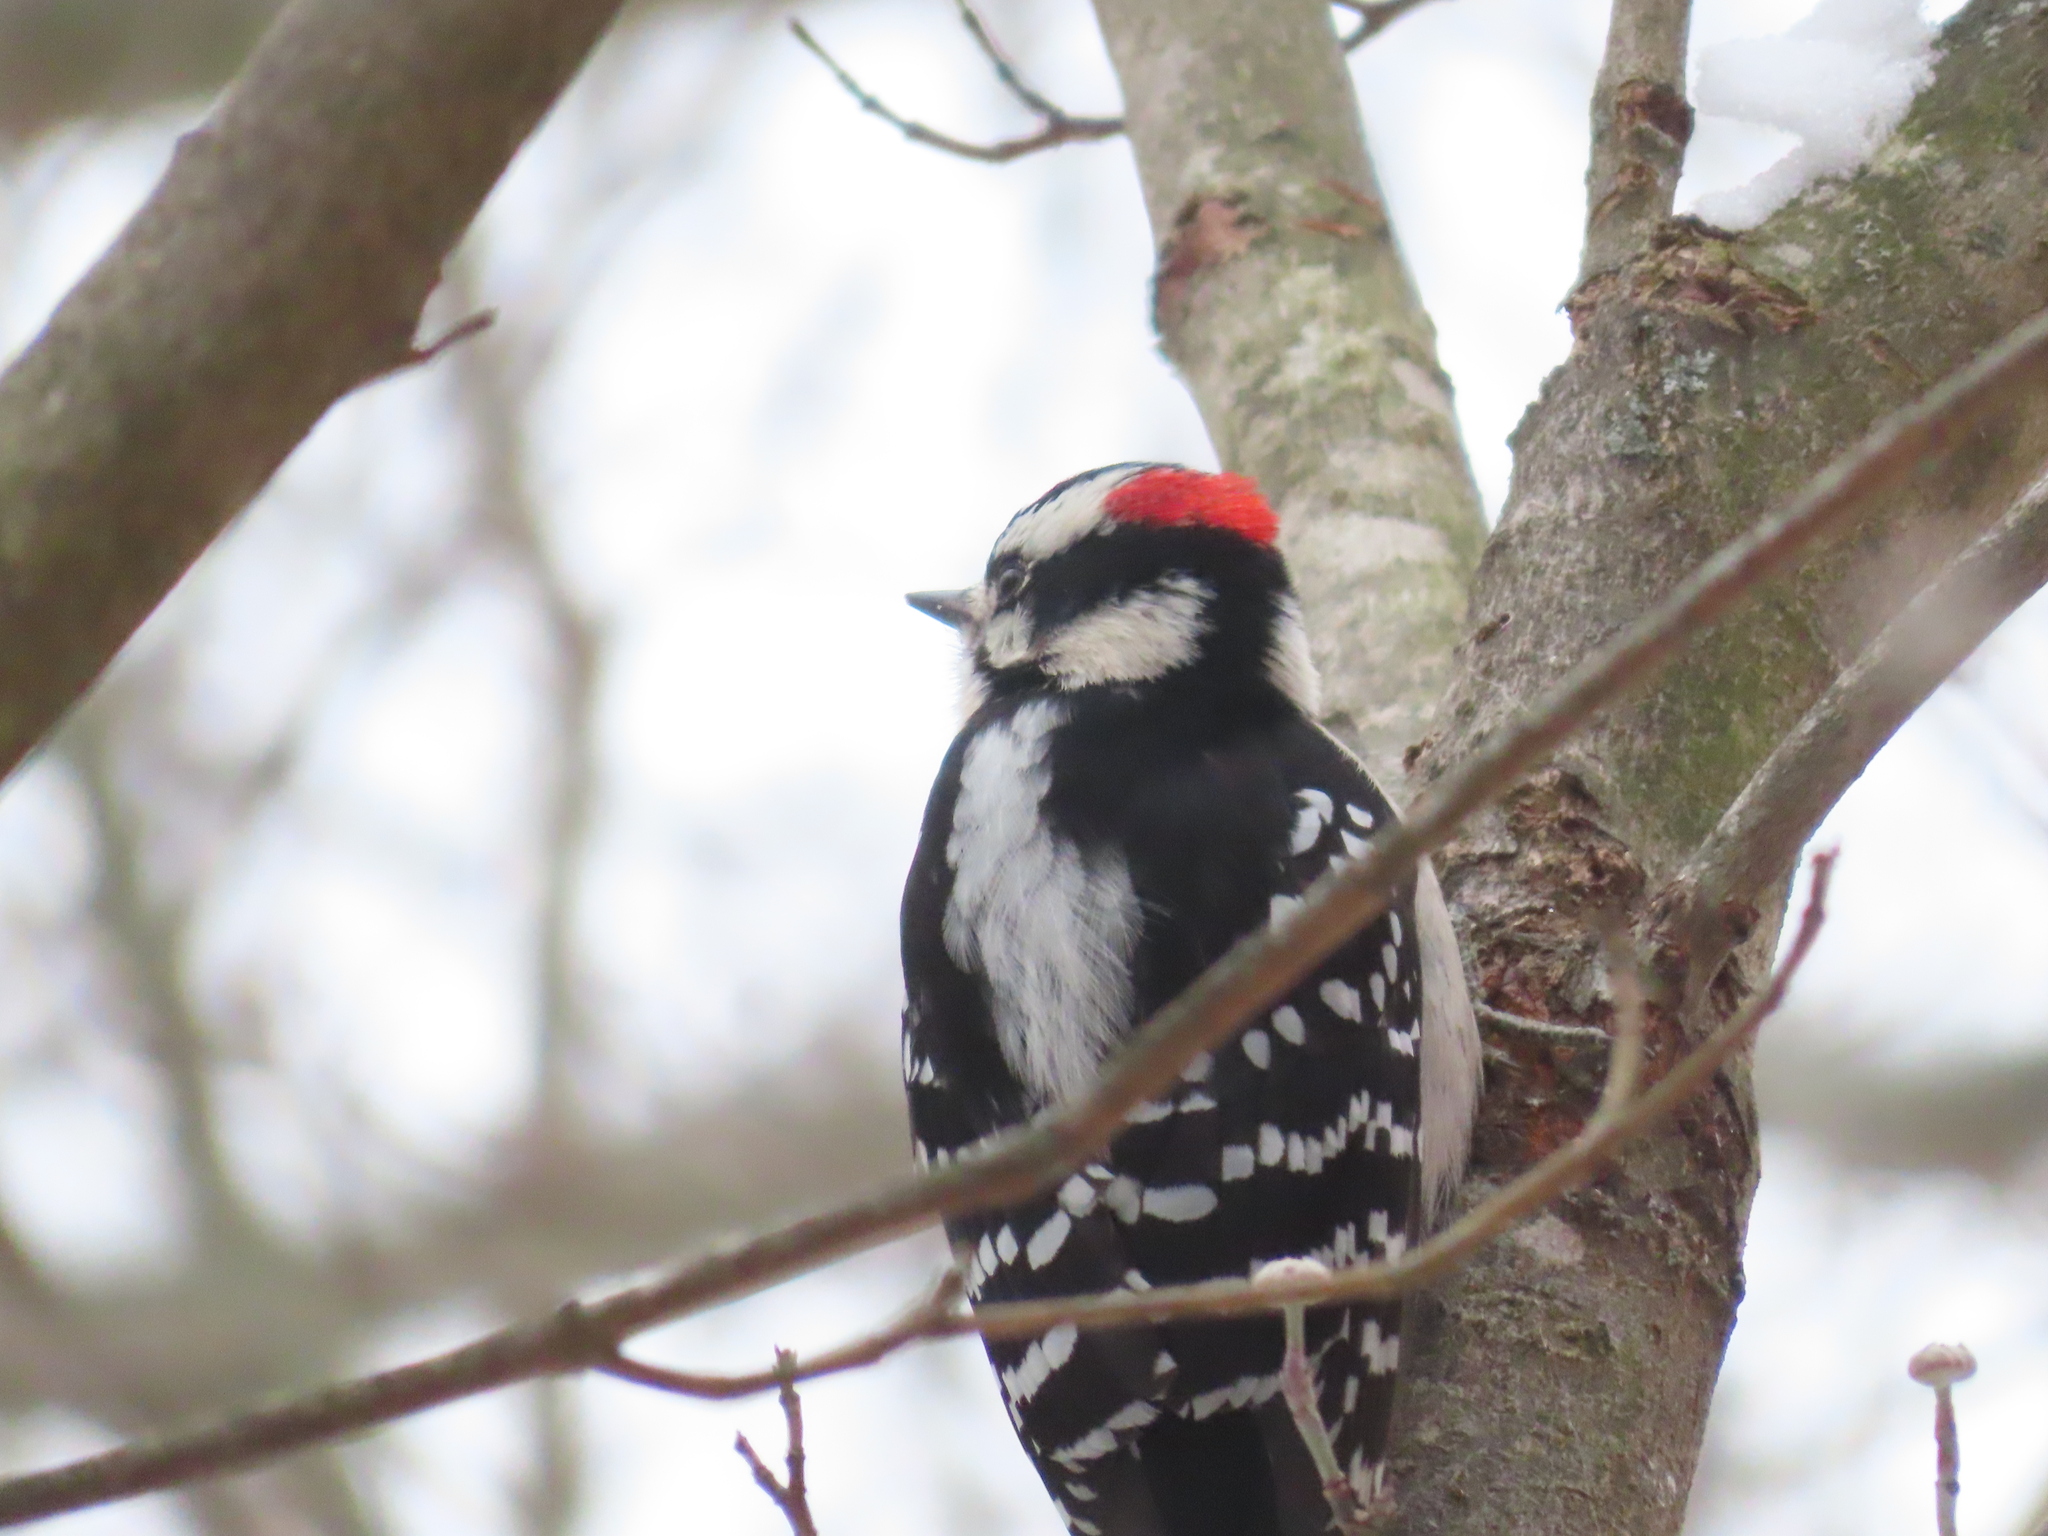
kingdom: Animalia
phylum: Chordata
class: Aves
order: Piciformes
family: Picidae
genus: Dryobates
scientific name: Dryobates pubescens
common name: Downy woodpecker
